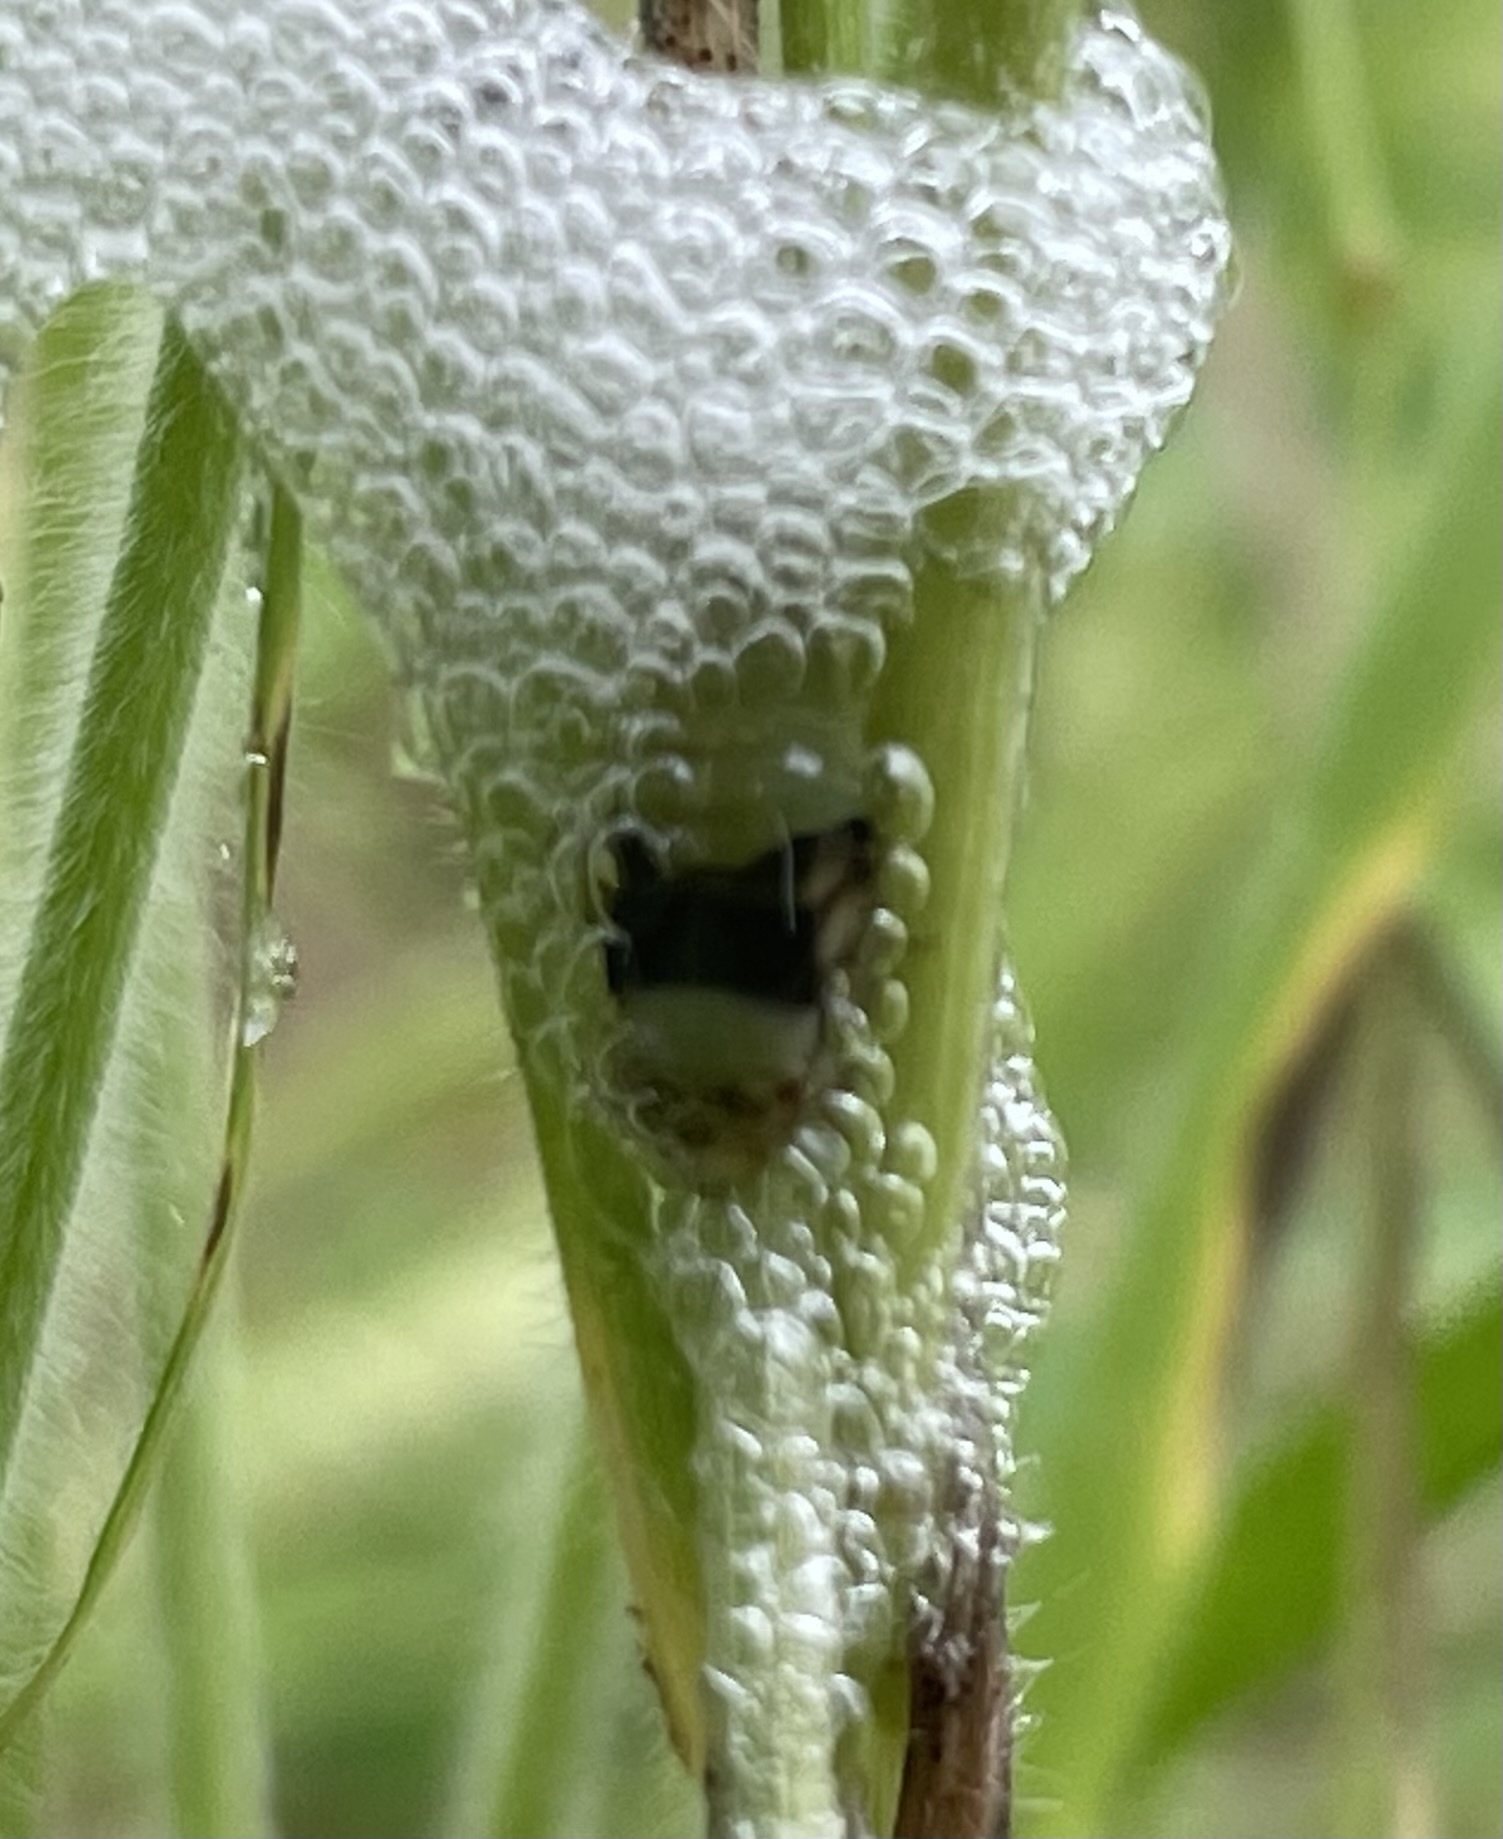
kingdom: Animalia
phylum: Arthropoda
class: Insecta
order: Hemiptera
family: Aphrophoridae
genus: Lepyronia
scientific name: Lepyronia quadrangularis
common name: Diamond-backed spittlebug
